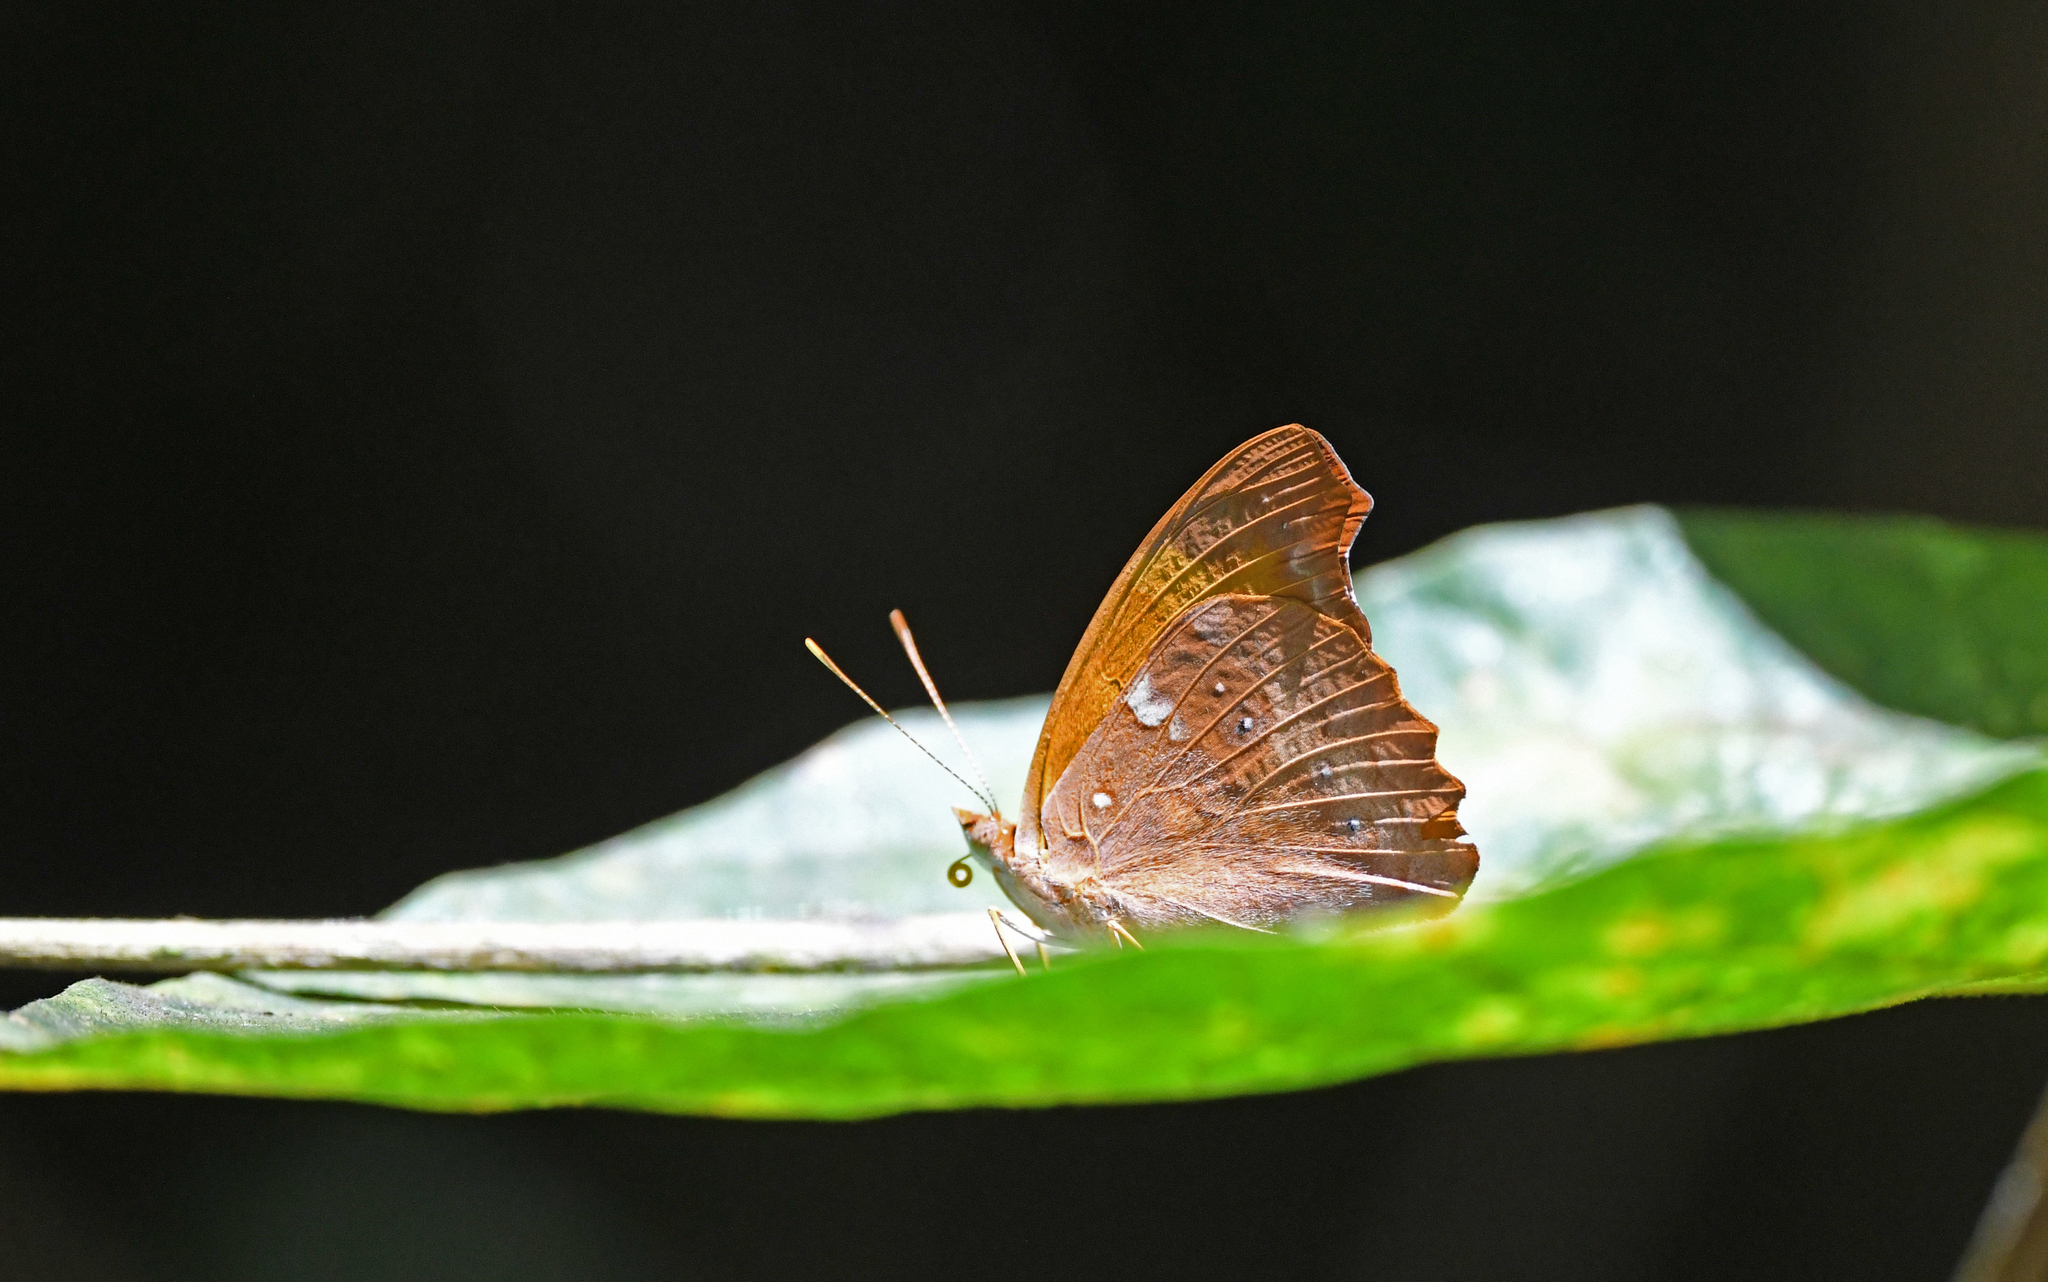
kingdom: Animalia
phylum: Arthropoda
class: Insecta
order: Lepidoptera
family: Nymphalidae
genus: Temenis
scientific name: Temenis laothoe
